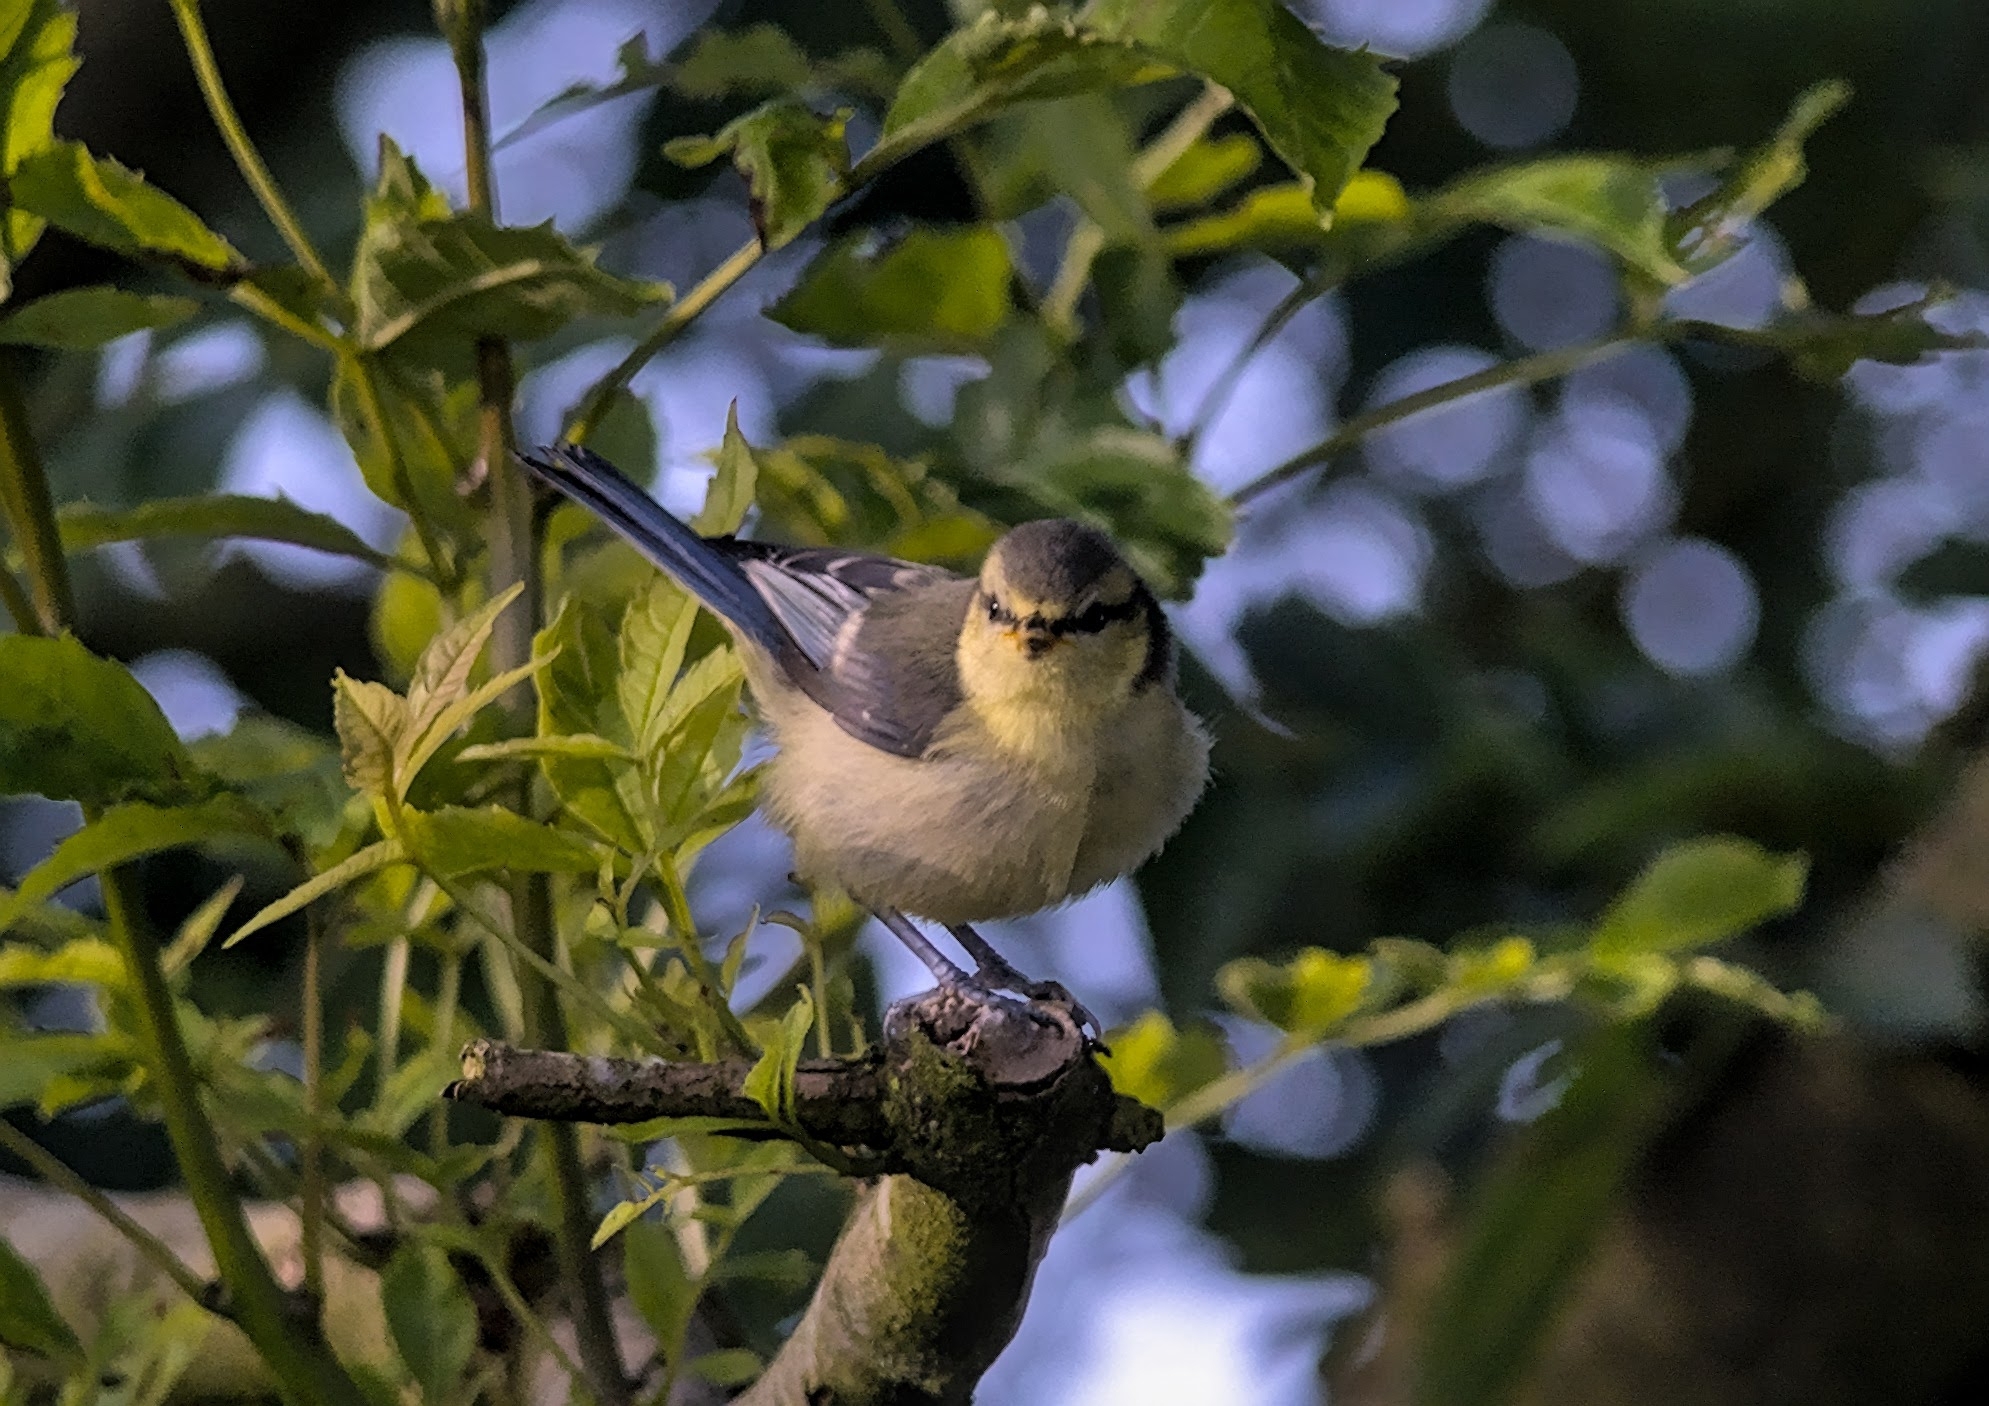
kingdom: Animalia
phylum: Chordata
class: Aves
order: Passeriformes
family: Paridae
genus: Cyanistes
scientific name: Cyanistes caeruleus
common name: Eurasian blue tit
